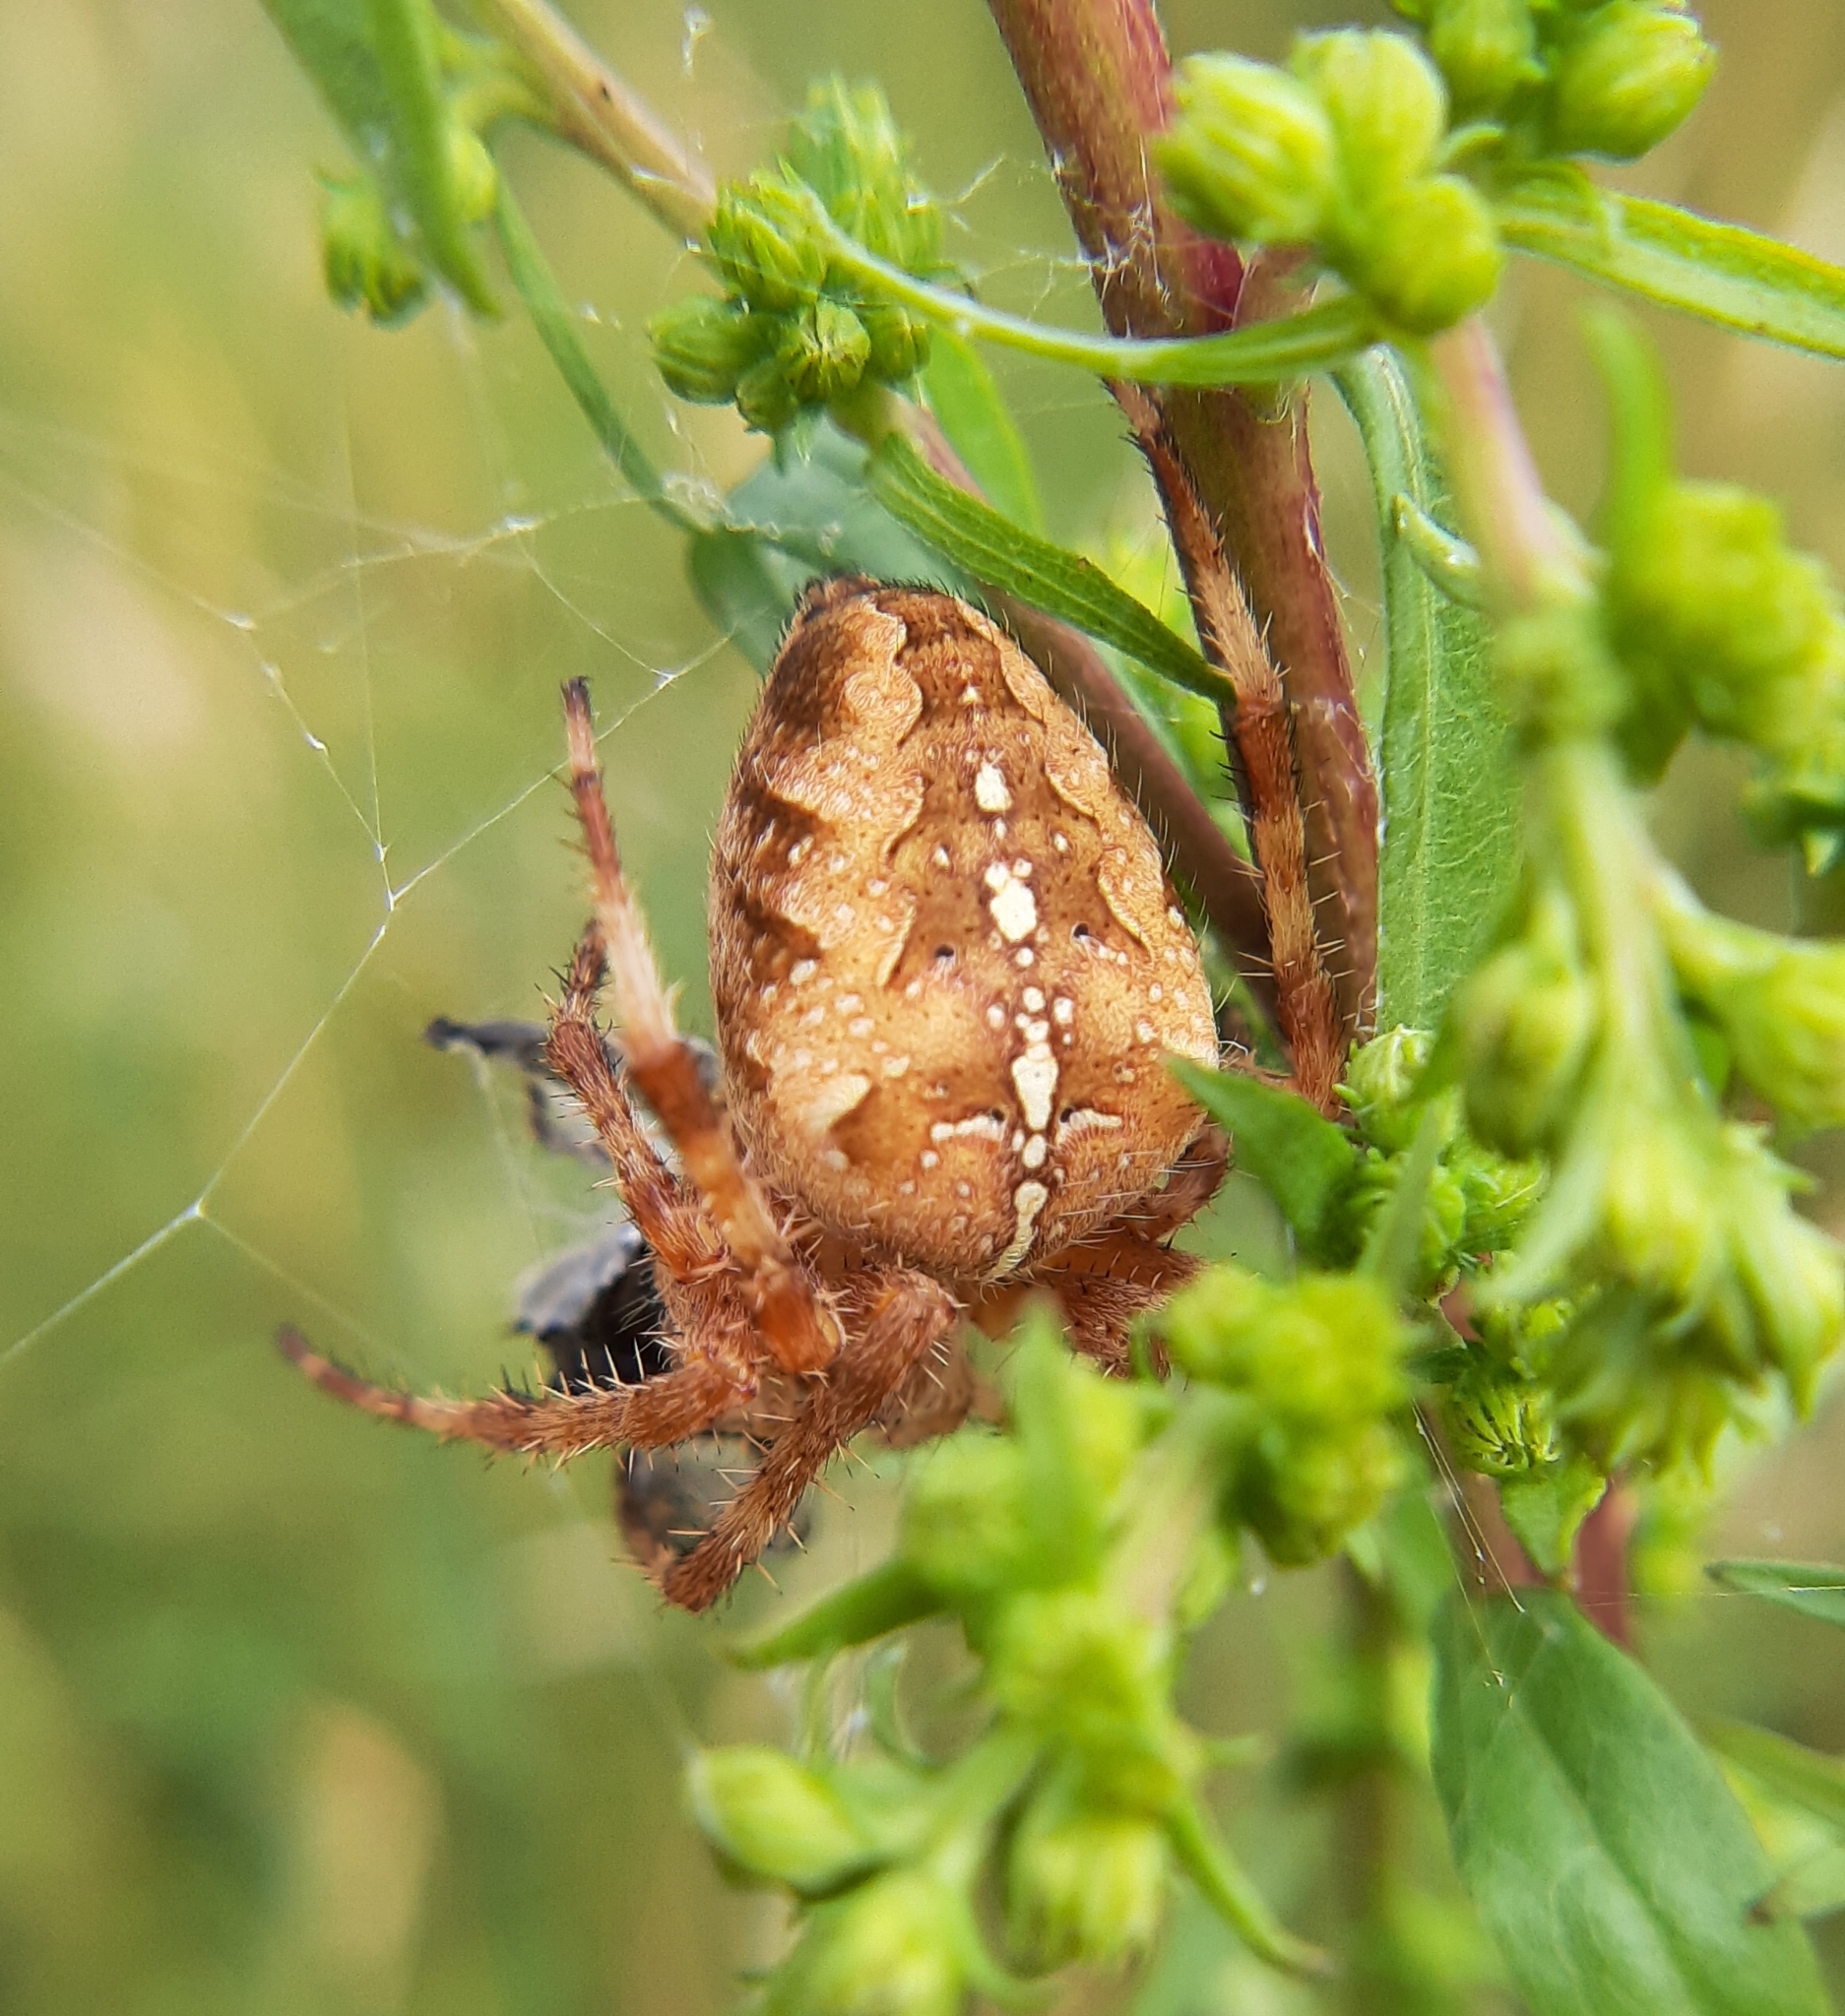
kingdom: Animalia
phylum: Arthropoda
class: Arachnida
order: Araneae
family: Araneidae
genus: Araneus
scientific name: Araneus diadematus
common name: Cross orbweaver
